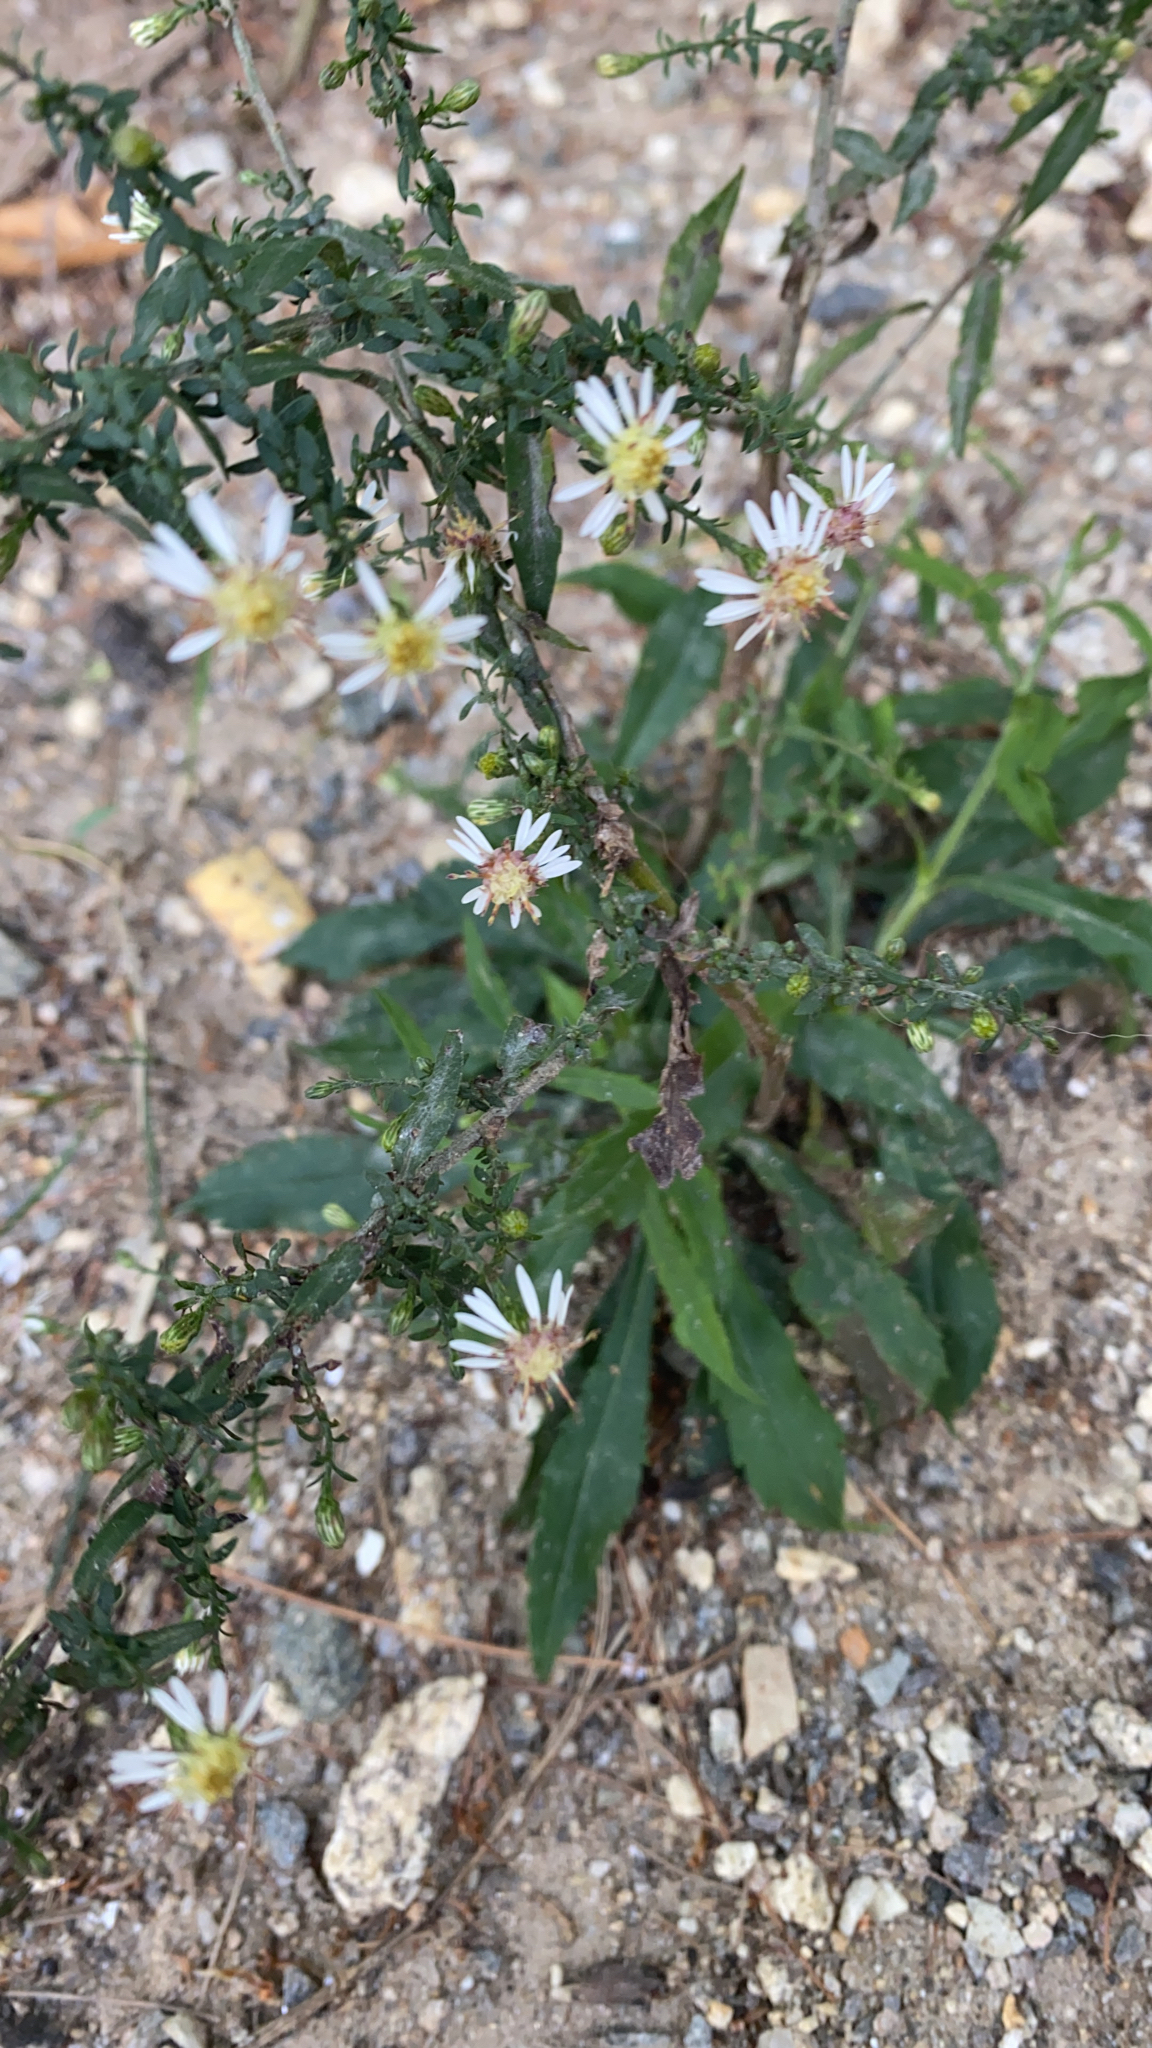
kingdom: Plantae
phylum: Tracheophyta
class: Magnoliopsida
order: Asterales
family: Asteraceae
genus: Symphyotrichum
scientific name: Symphyotrichum lateriflorum
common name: Calico aster
